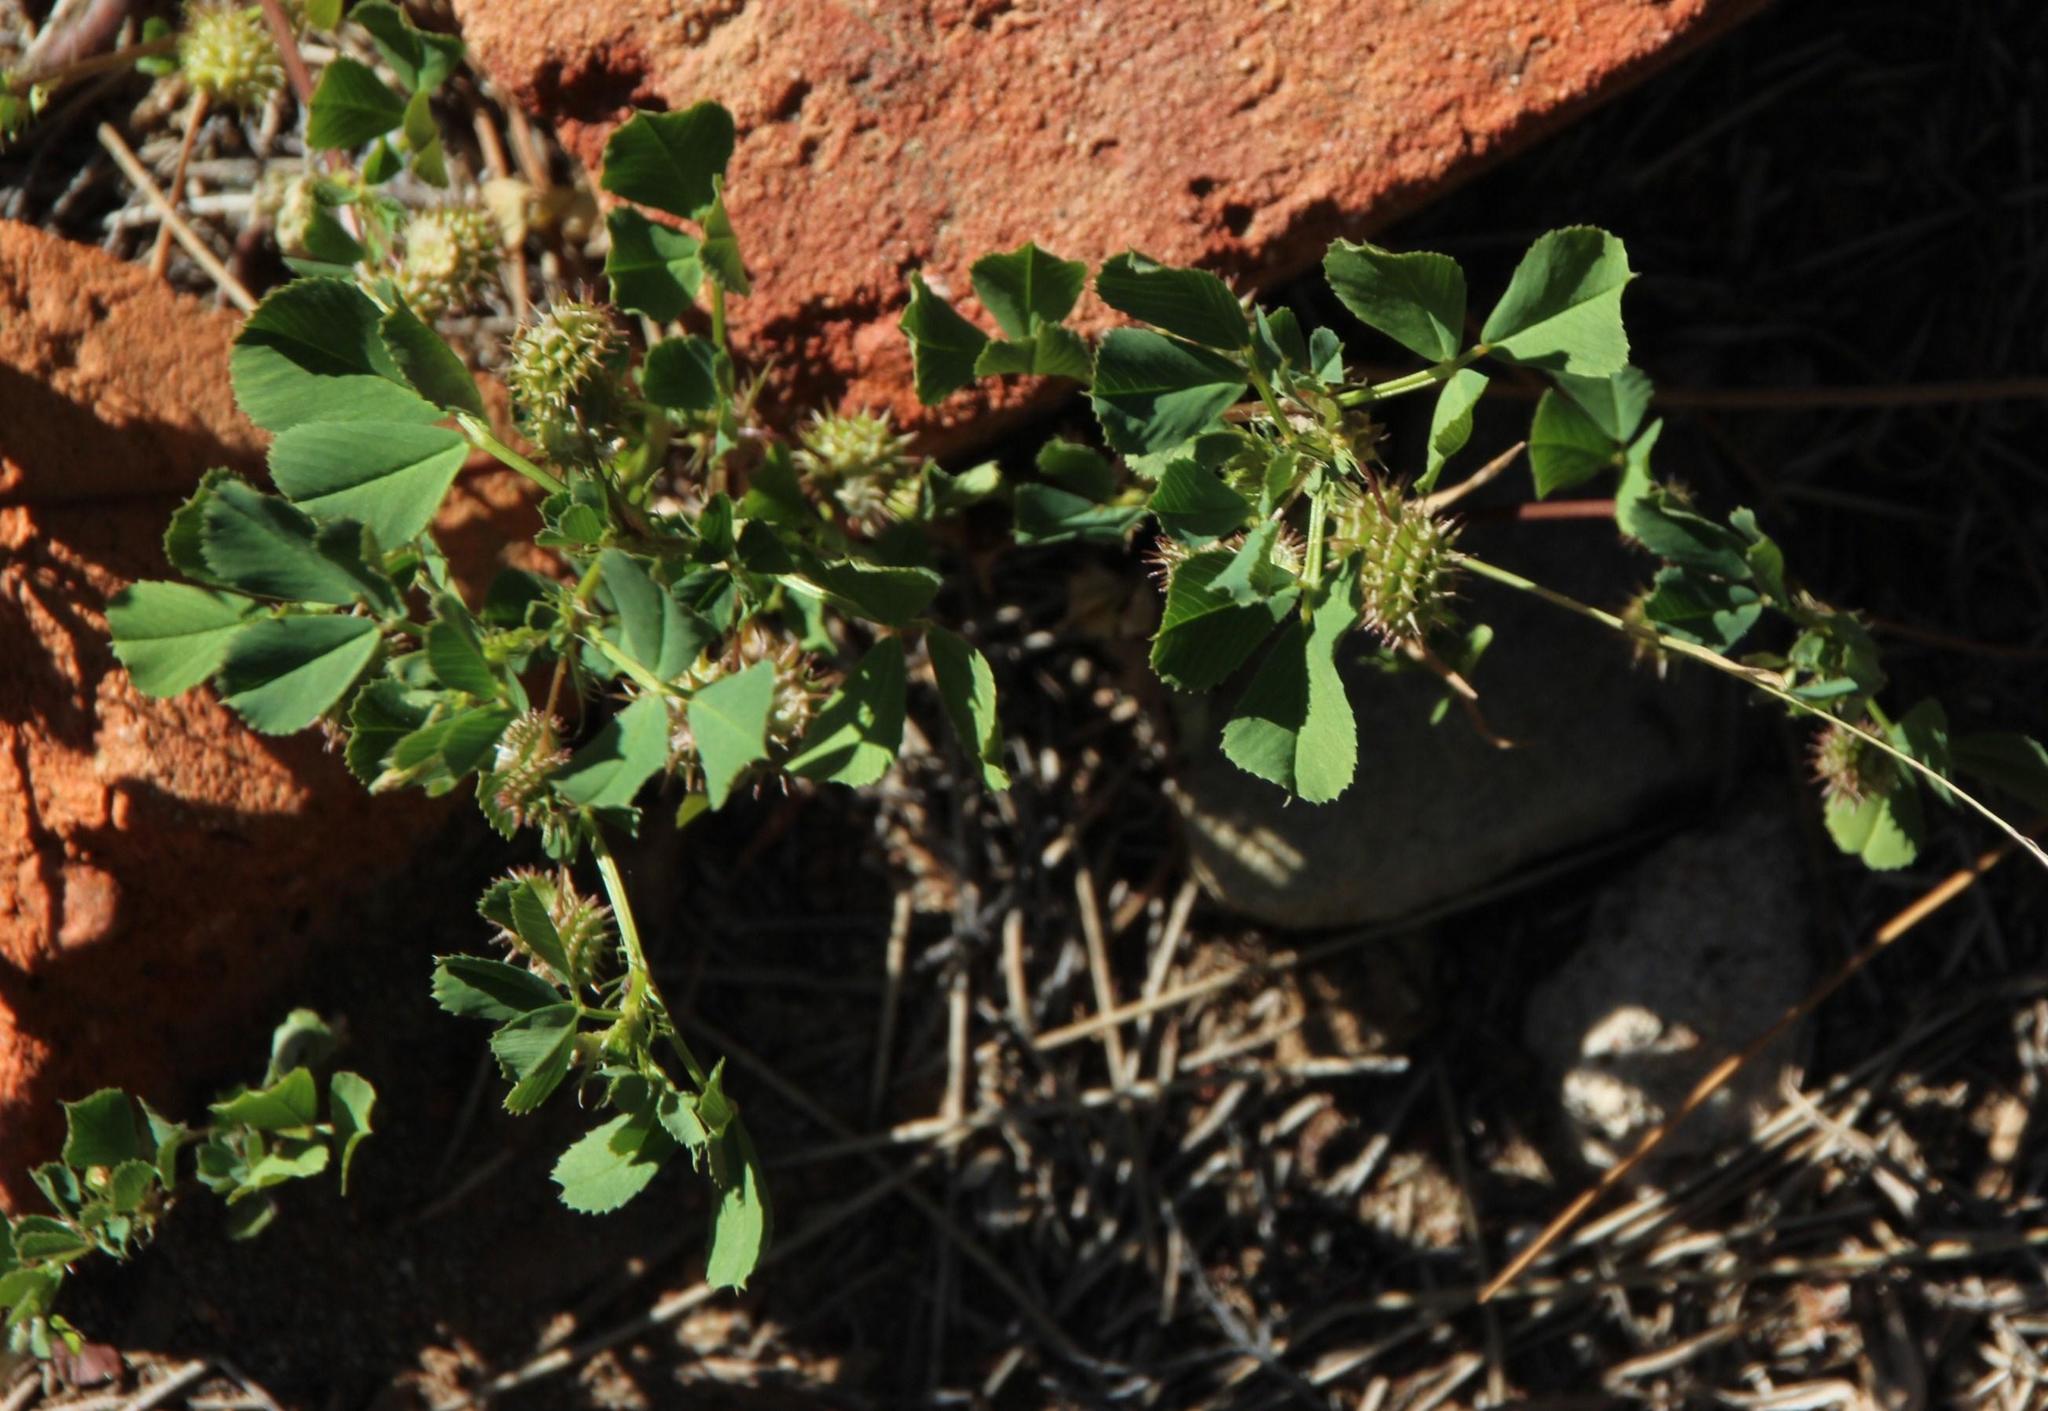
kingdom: Plantae
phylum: Tracheophyta
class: Magnoliopsida
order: Fabales
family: Fabaceae
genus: Medicago
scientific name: Medicago polymorpha
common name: Burclover
